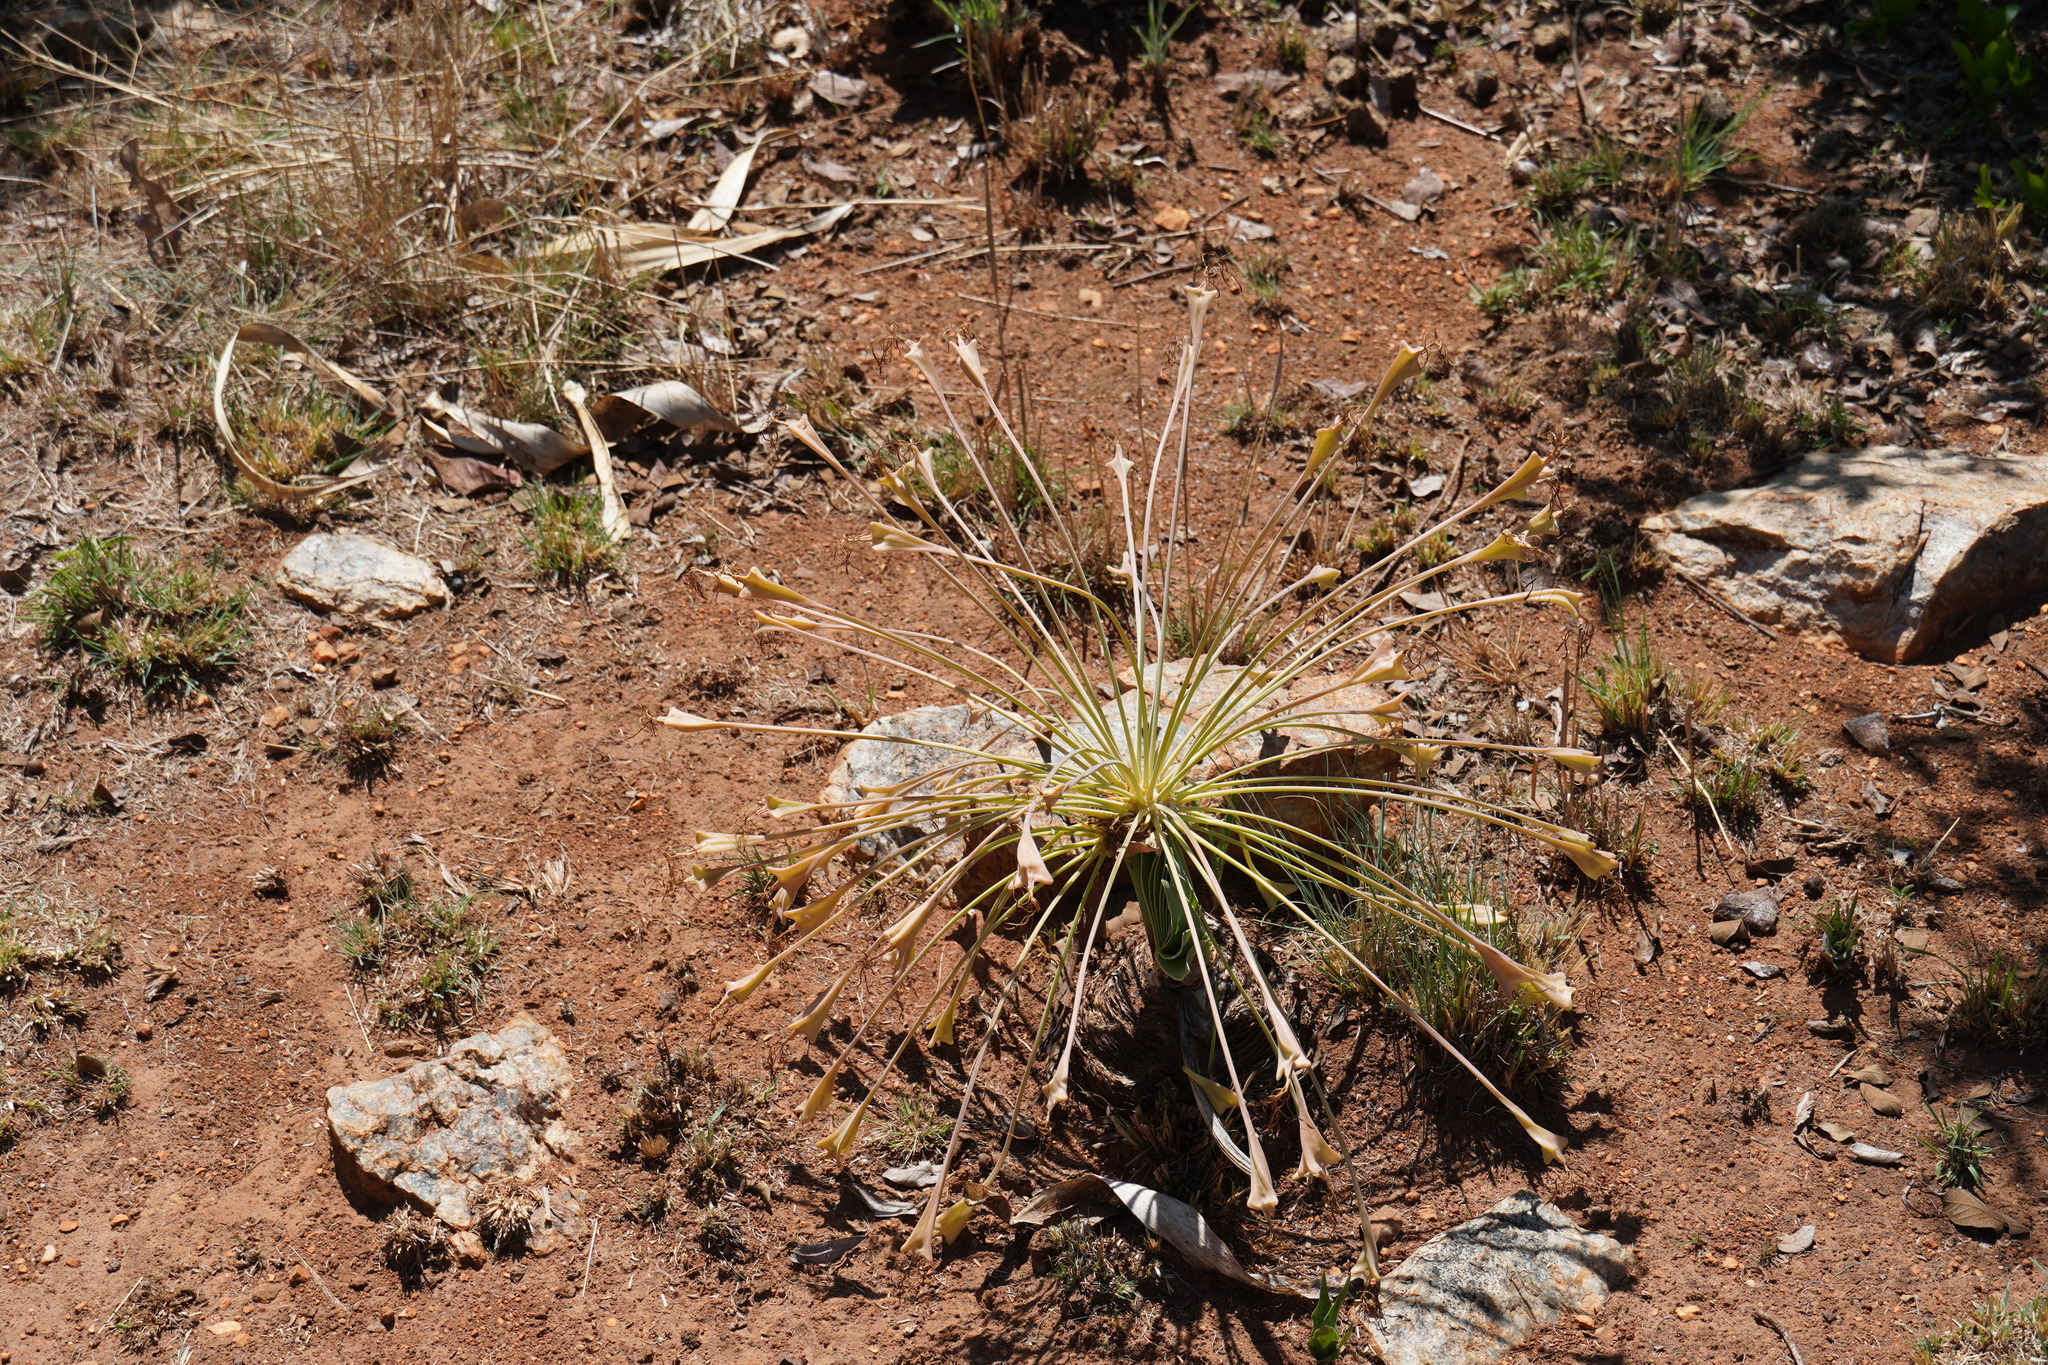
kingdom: Plantae
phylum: Tracheophyta
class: Liliopsida
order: Asparagales
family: Amaryllidaceae
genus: Boophone
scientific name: Boophone disticha
